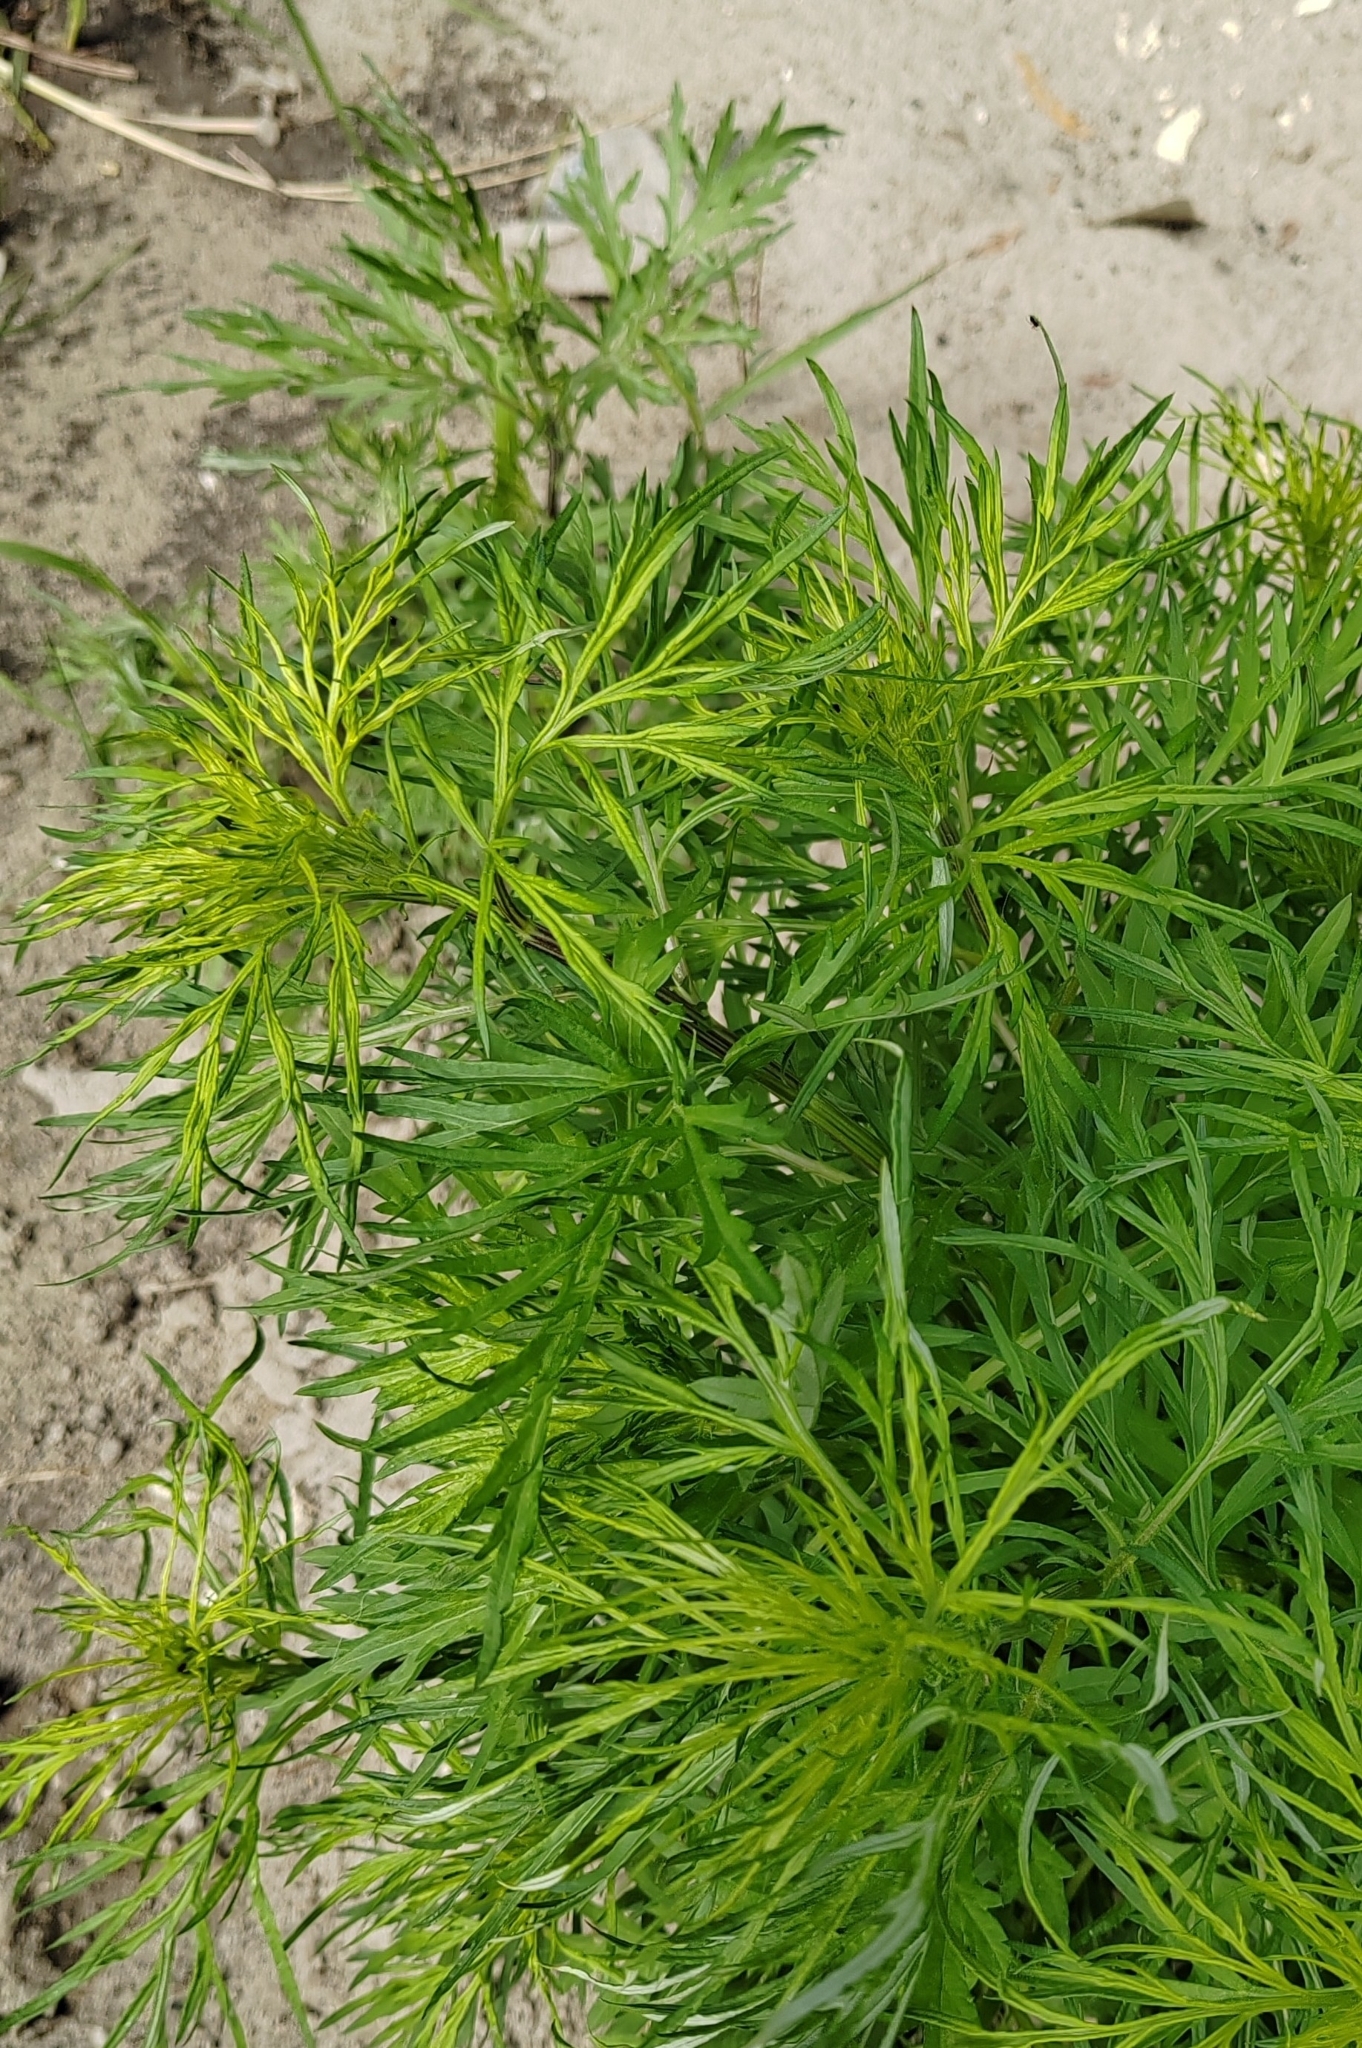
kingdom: Plantae
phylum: Tracheophyta
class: Magnoliopsida
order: Asterales
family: Asteraceae
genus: Artemisia
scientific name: Artemisia vulgaris
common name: Mugwort
